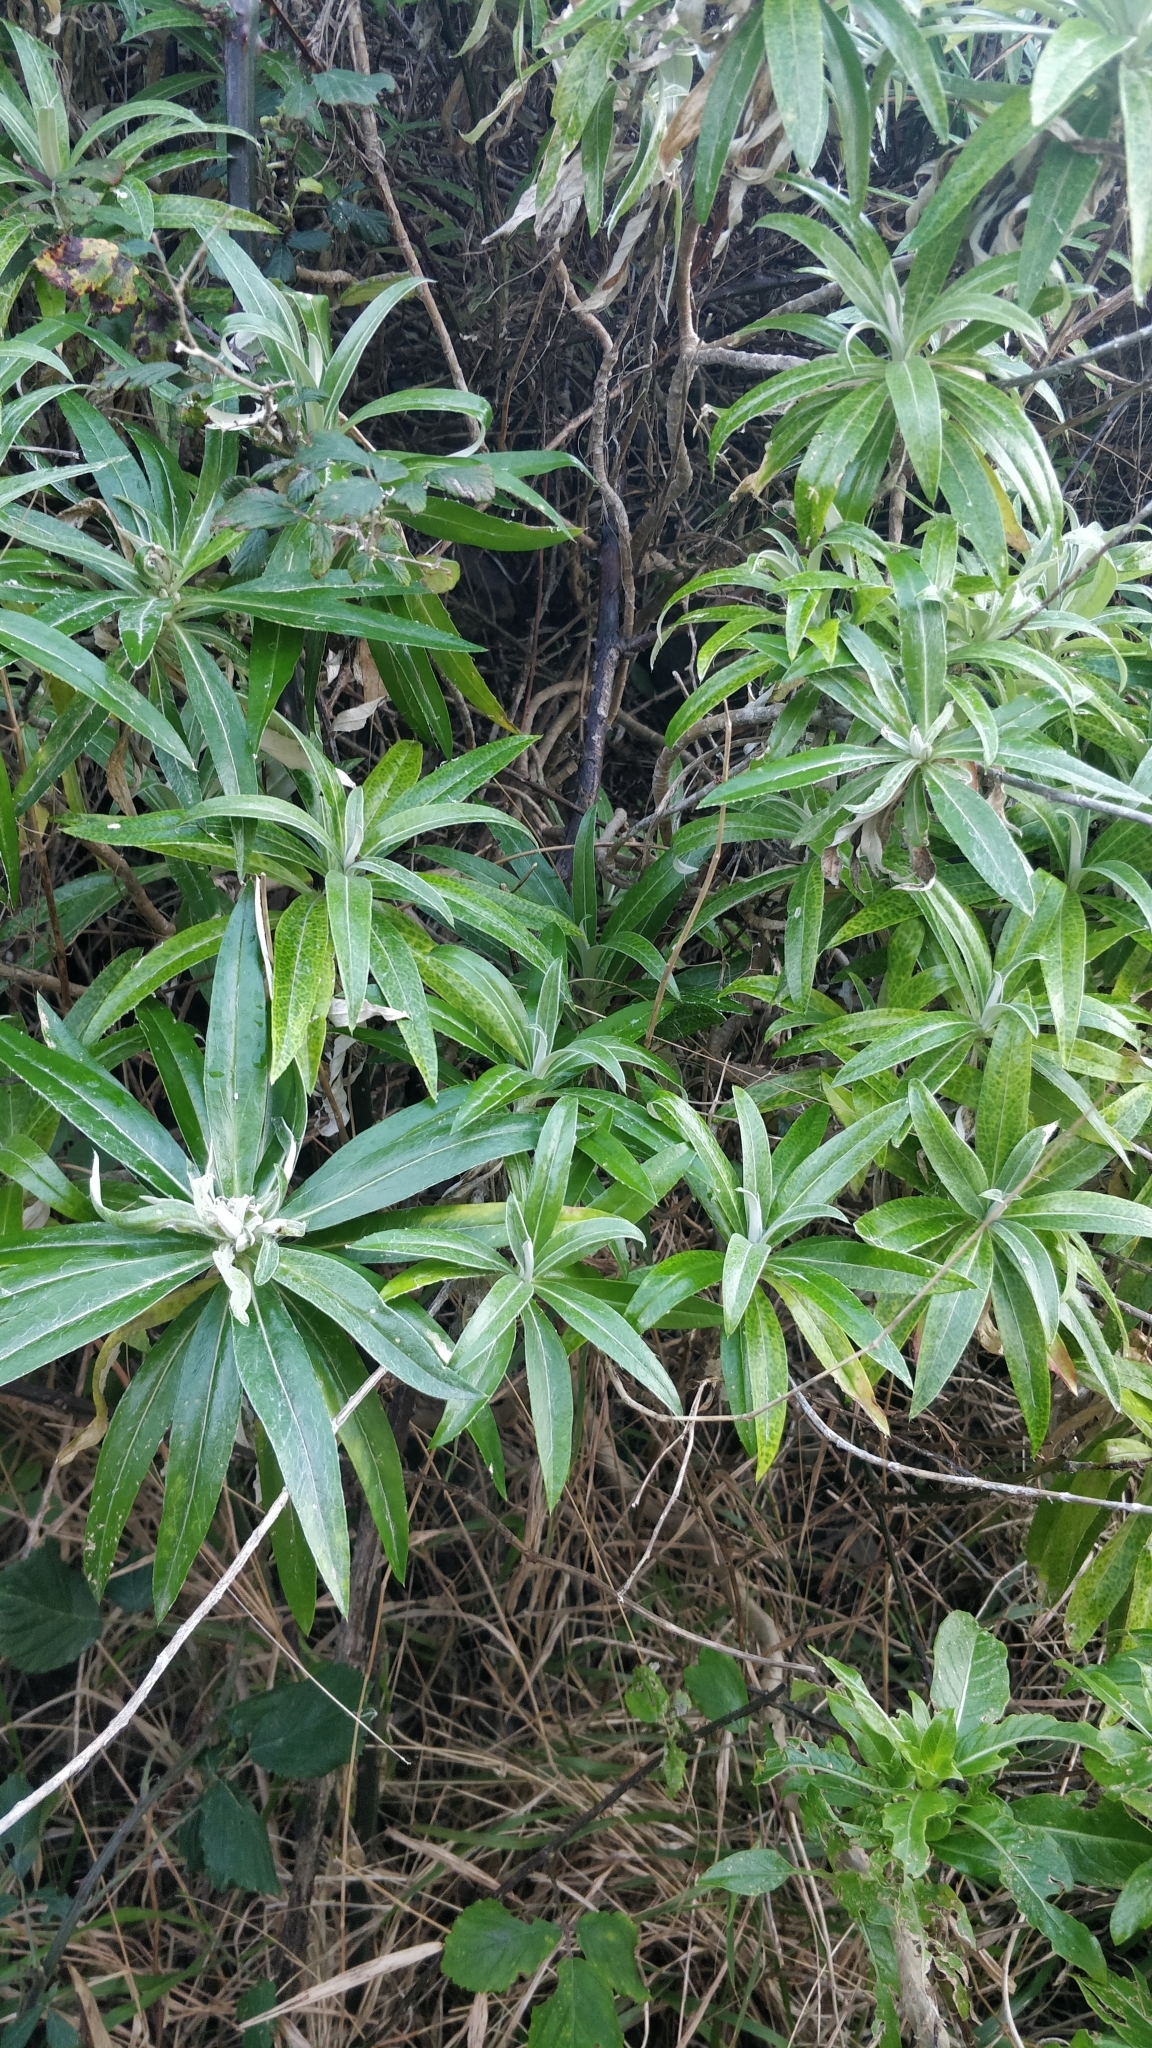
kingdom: Plantae
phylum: Tracheophyta
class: Magnoliopsida
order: Asterales
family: Asteraceae
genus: Carlina
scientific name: Carlina salicifolia
